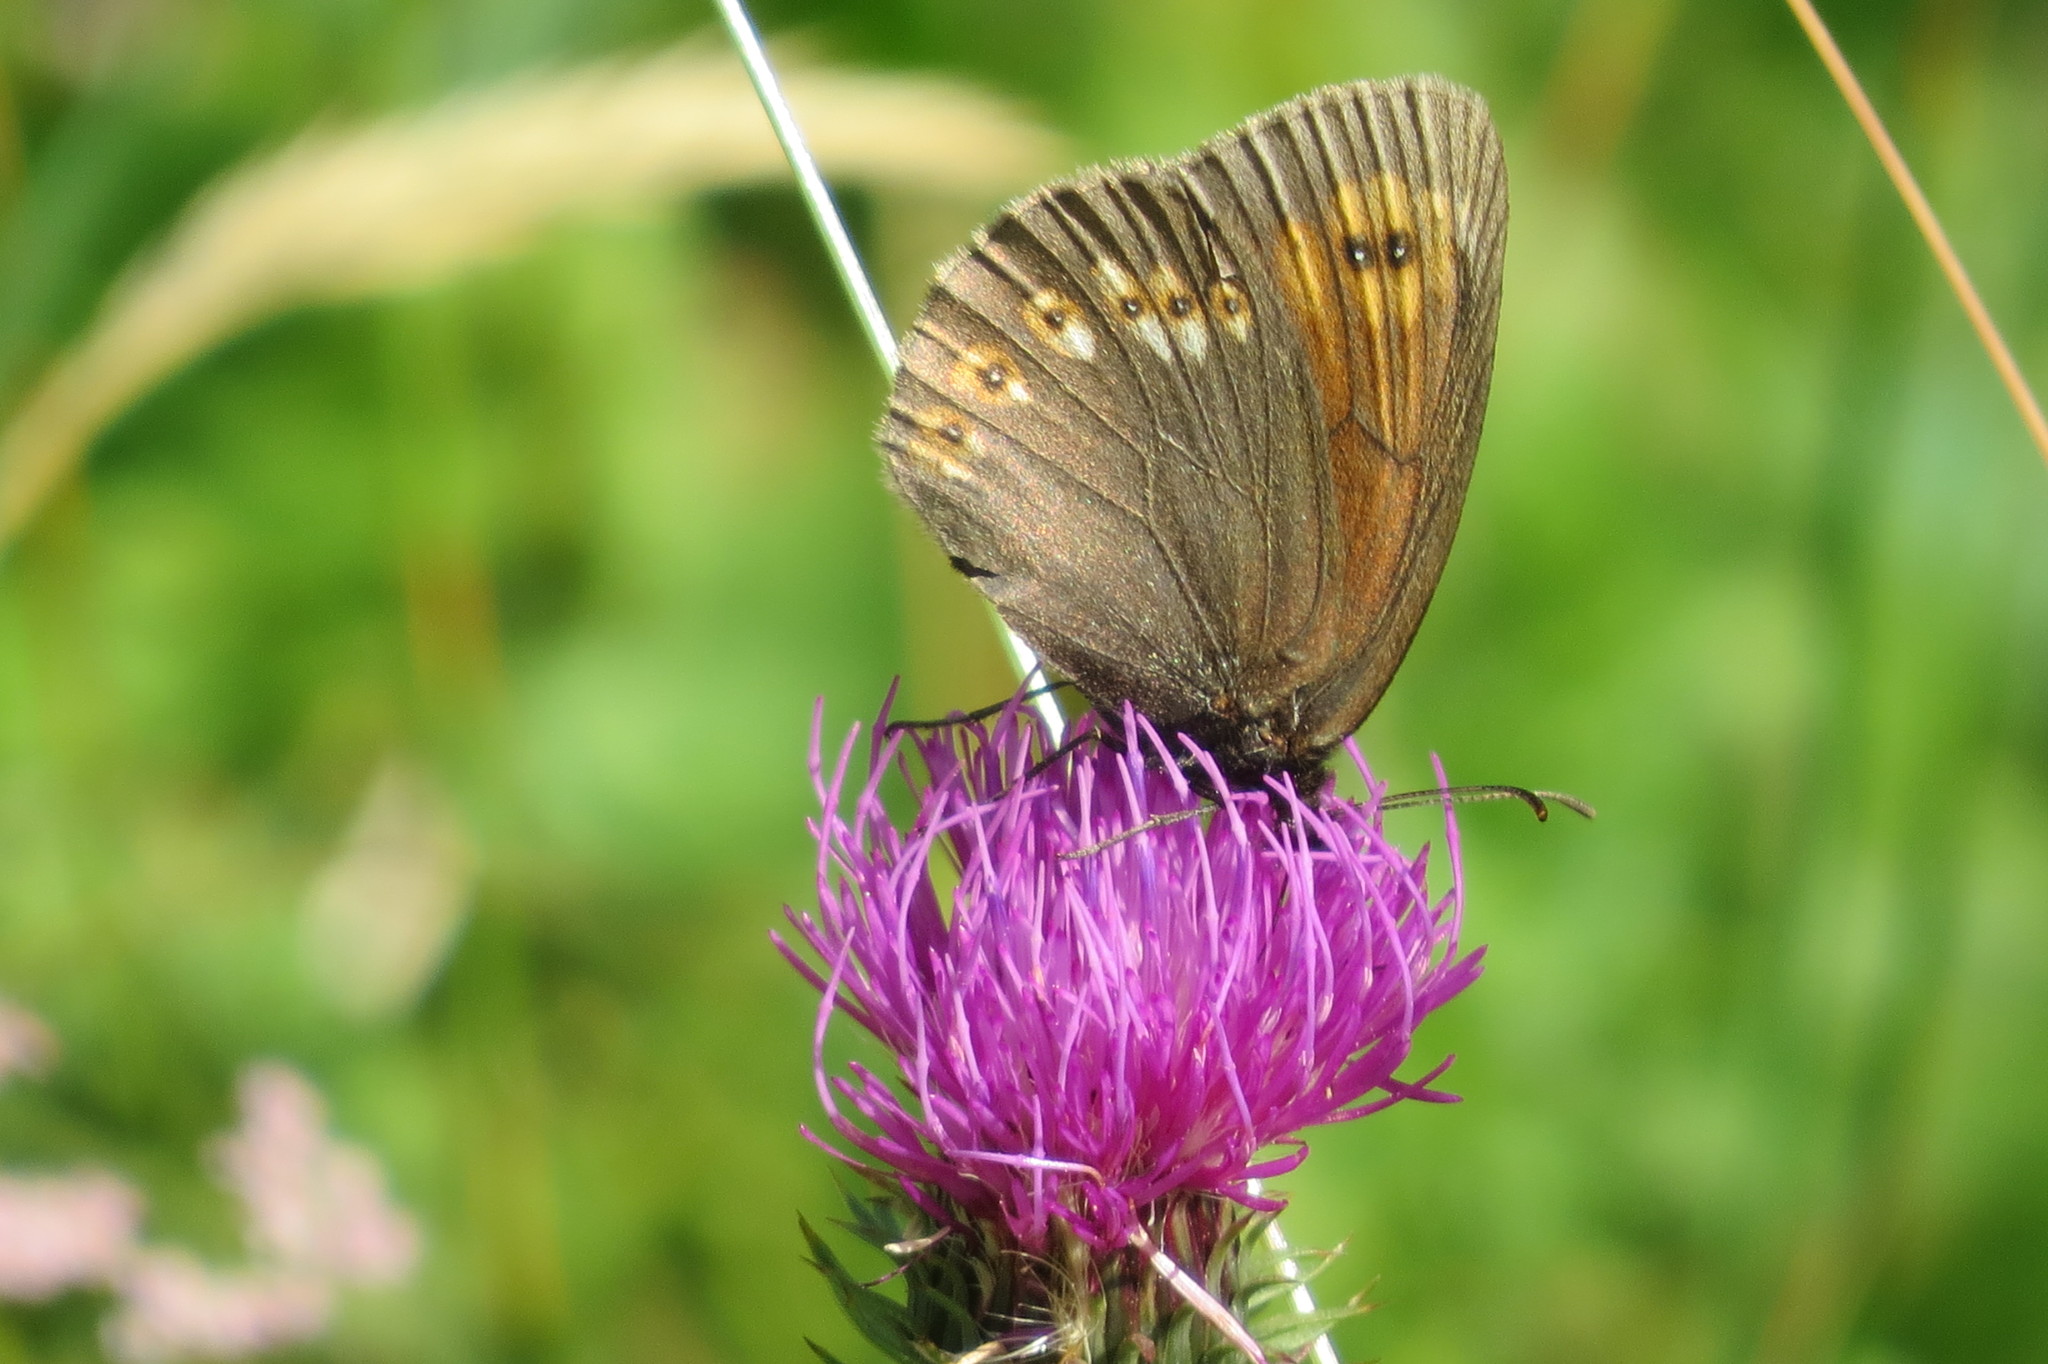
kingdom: Animalia
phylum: Arthropoda
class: Insecta
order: Lepidoptera
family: Nymphalidae
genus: Erebia
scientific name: Erebia alberganus
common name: Almond-eyed ringlet
